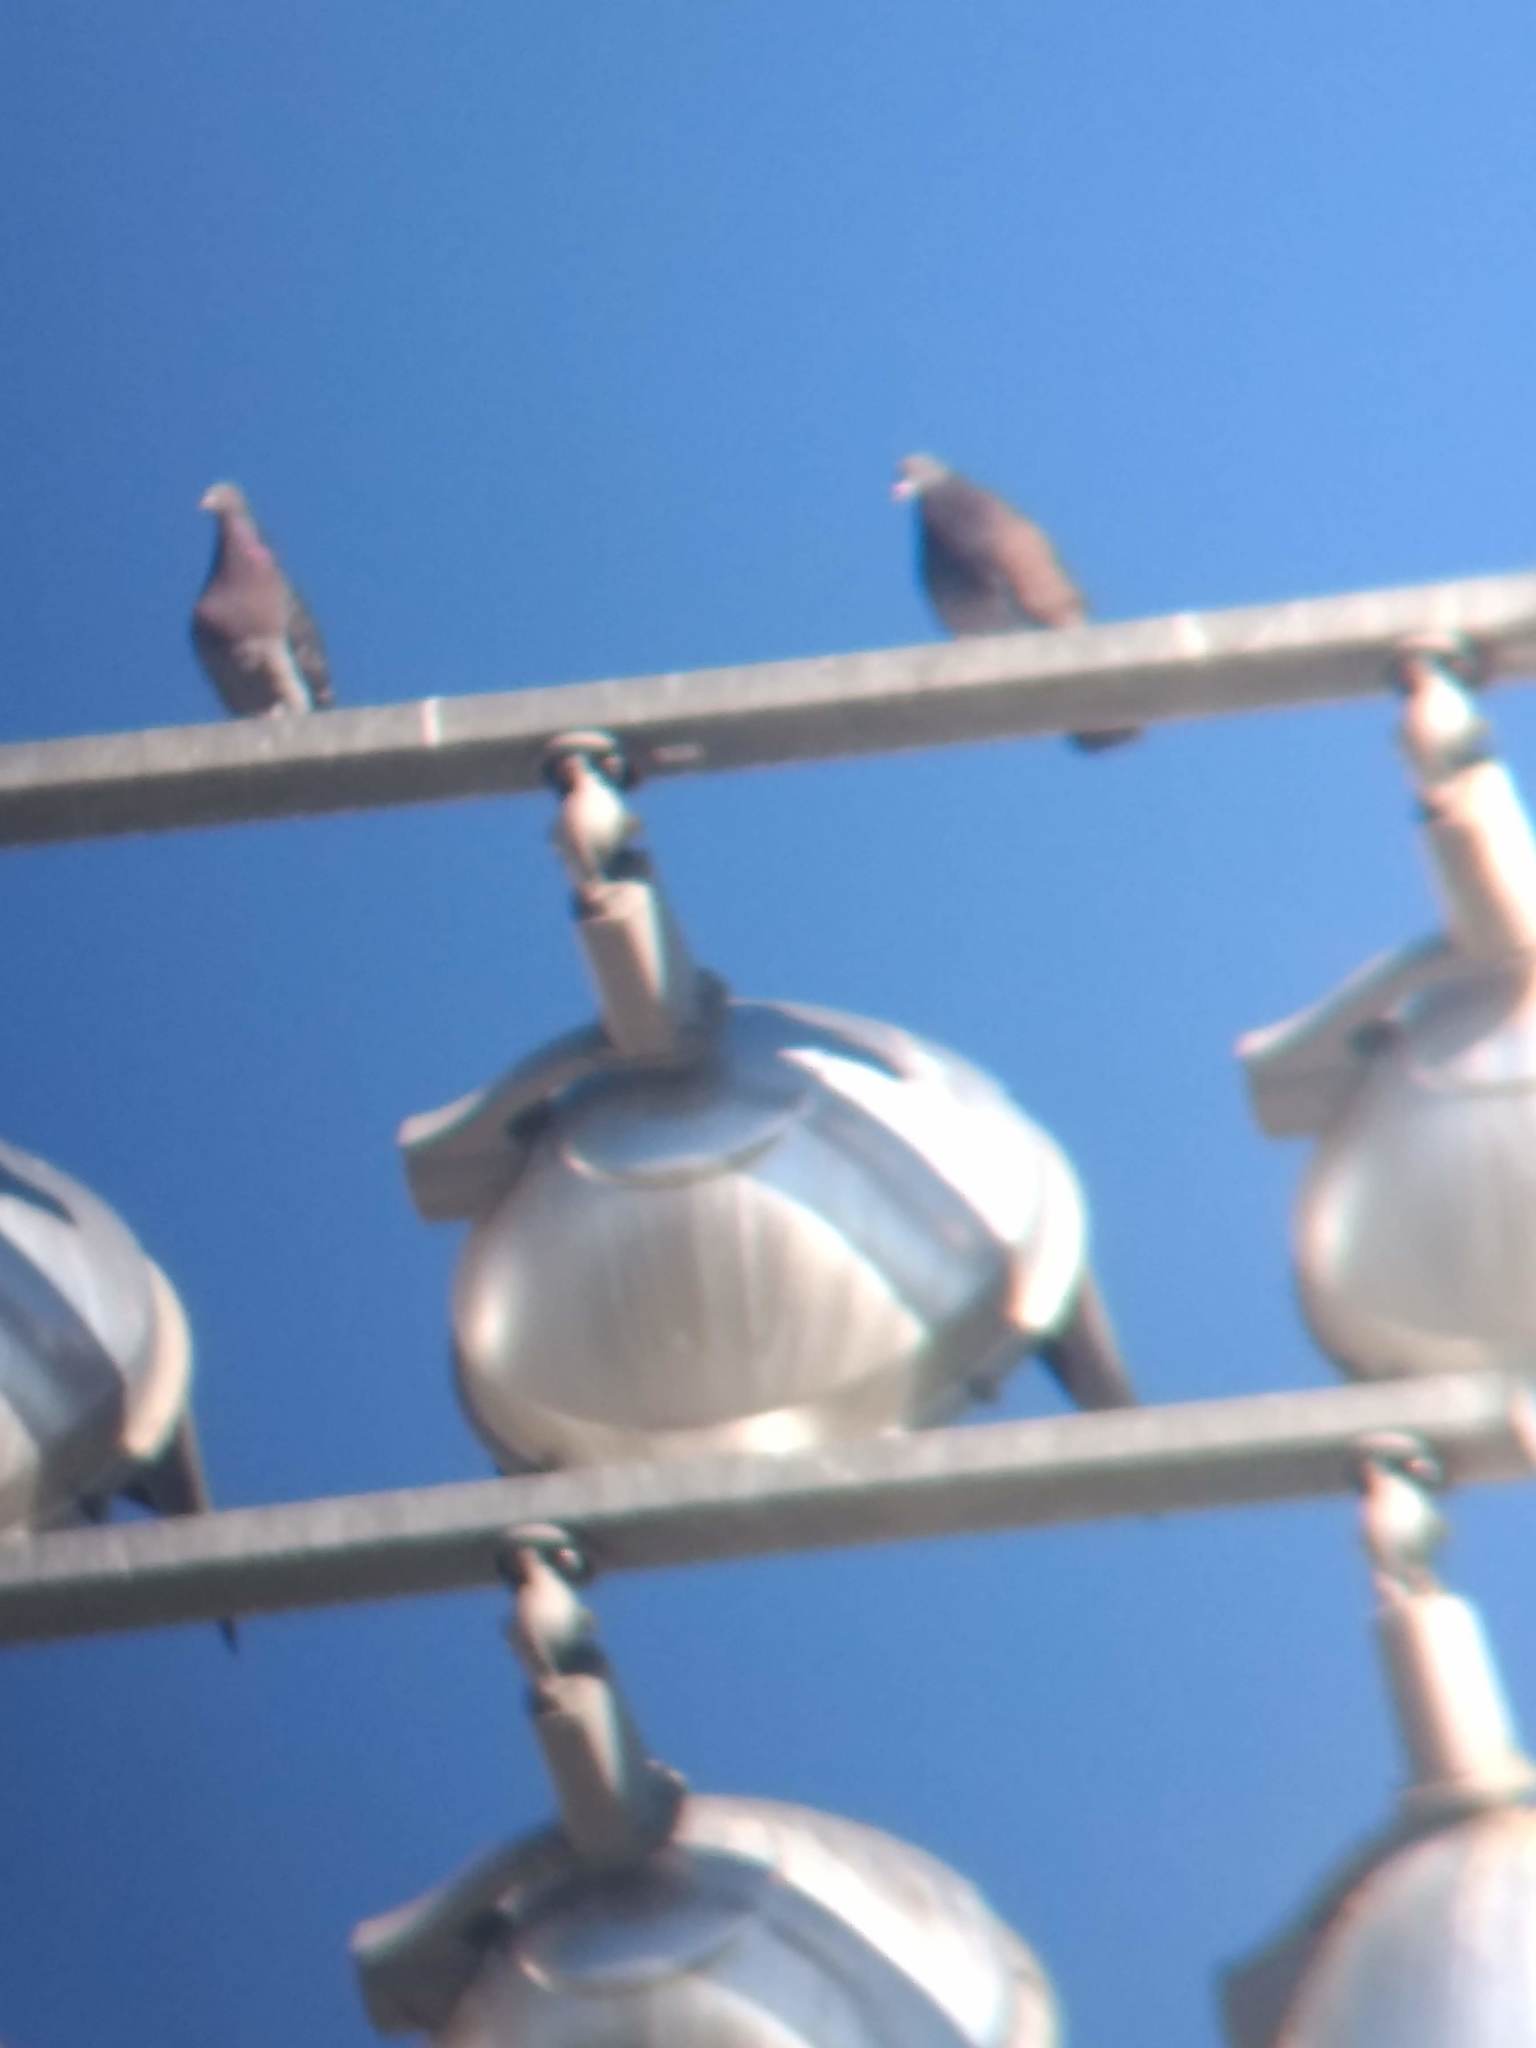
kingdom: Animalia
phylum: Chordata
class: Aves
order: Columbiformes
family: Columbidae
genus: Columba
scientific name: Columba livia
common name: Rock pigeon
